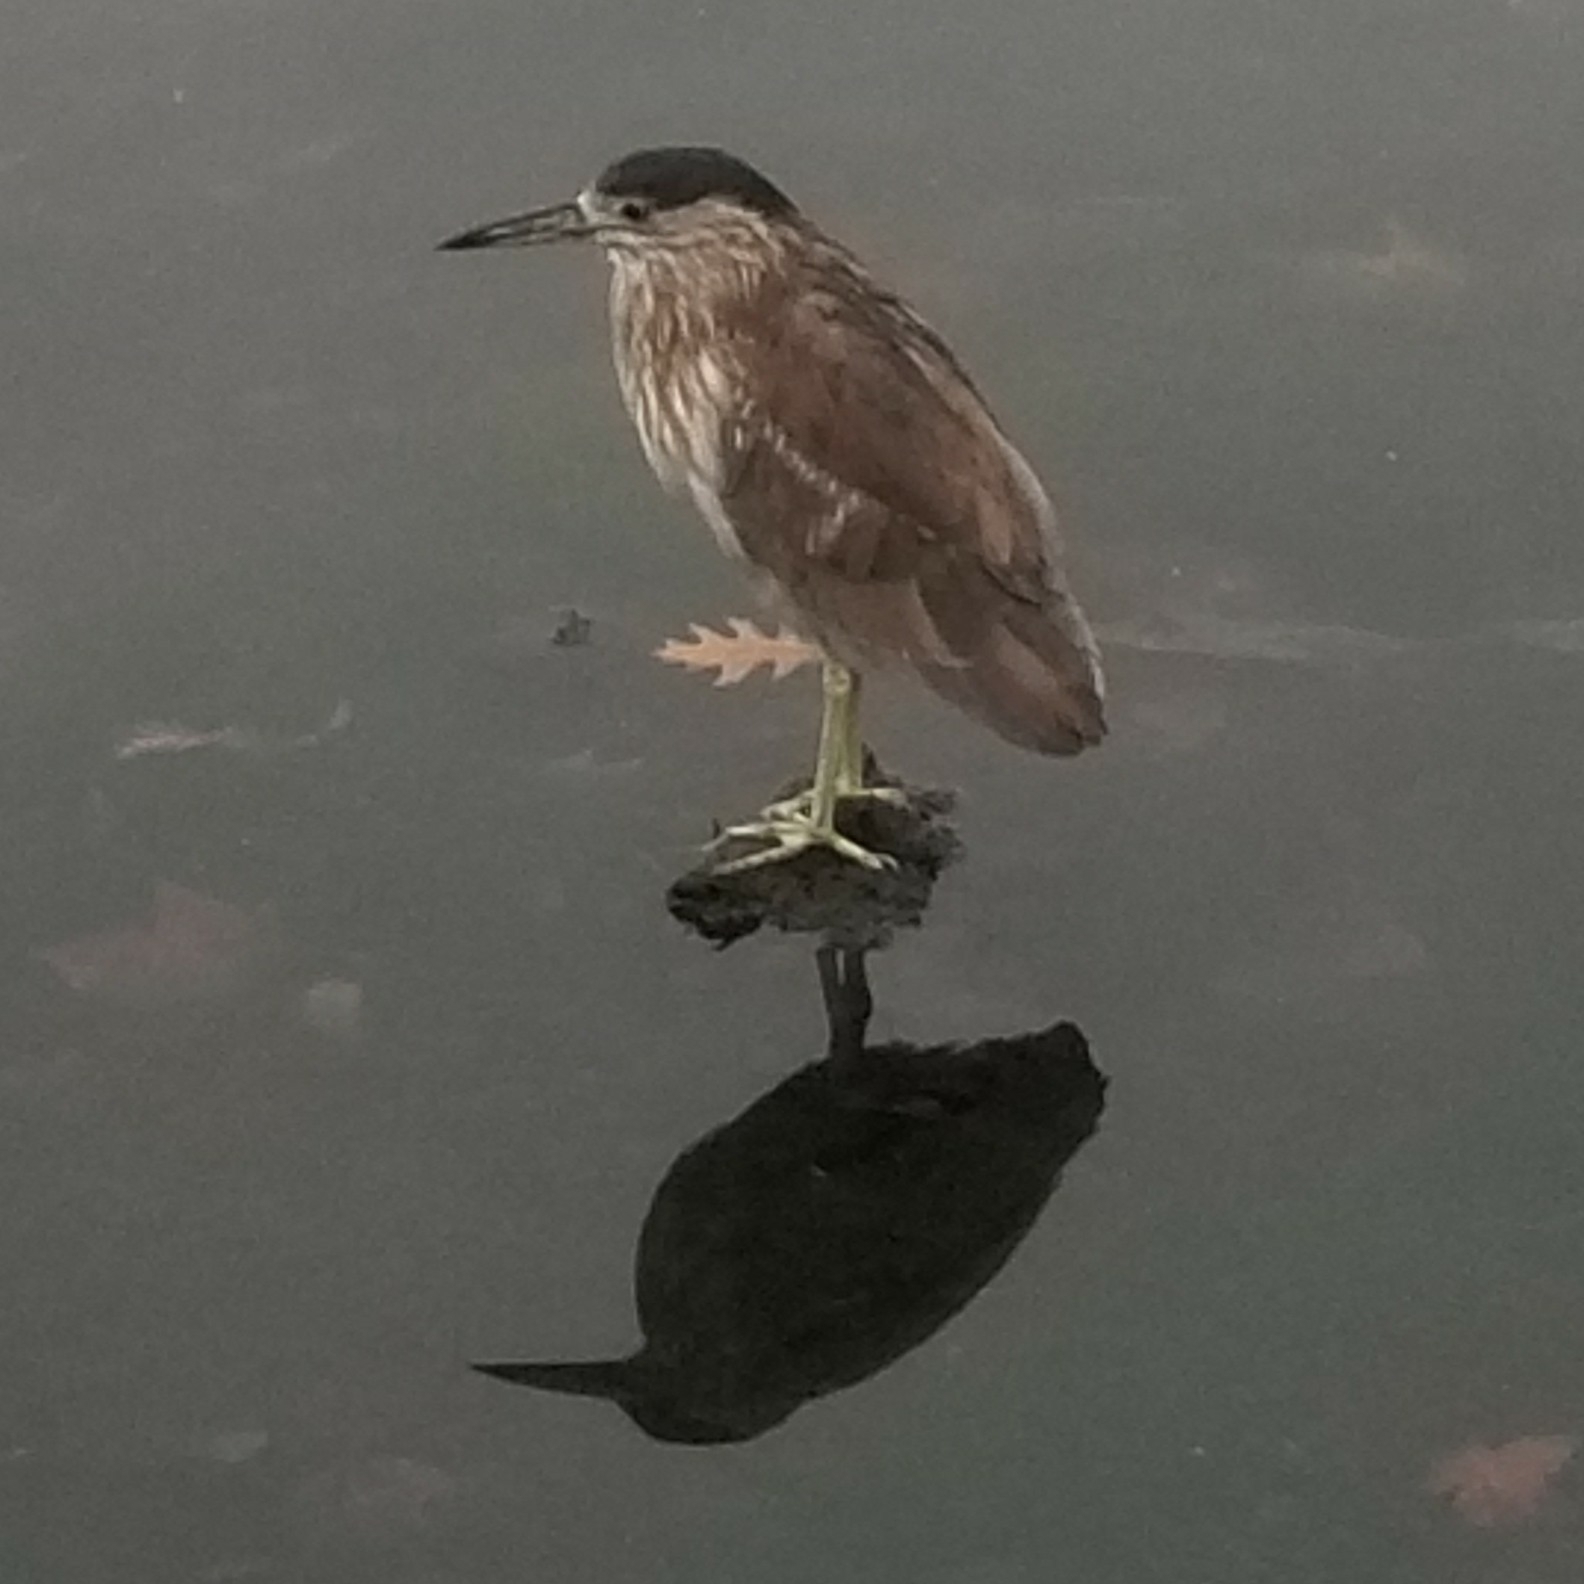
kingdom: Animalia
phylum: Chordata
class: Aves
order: Pelecaniformes
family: Ardeidae
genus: Nycticorax
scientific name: Nycticorax nycticorax
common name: Black-crowned night heron
